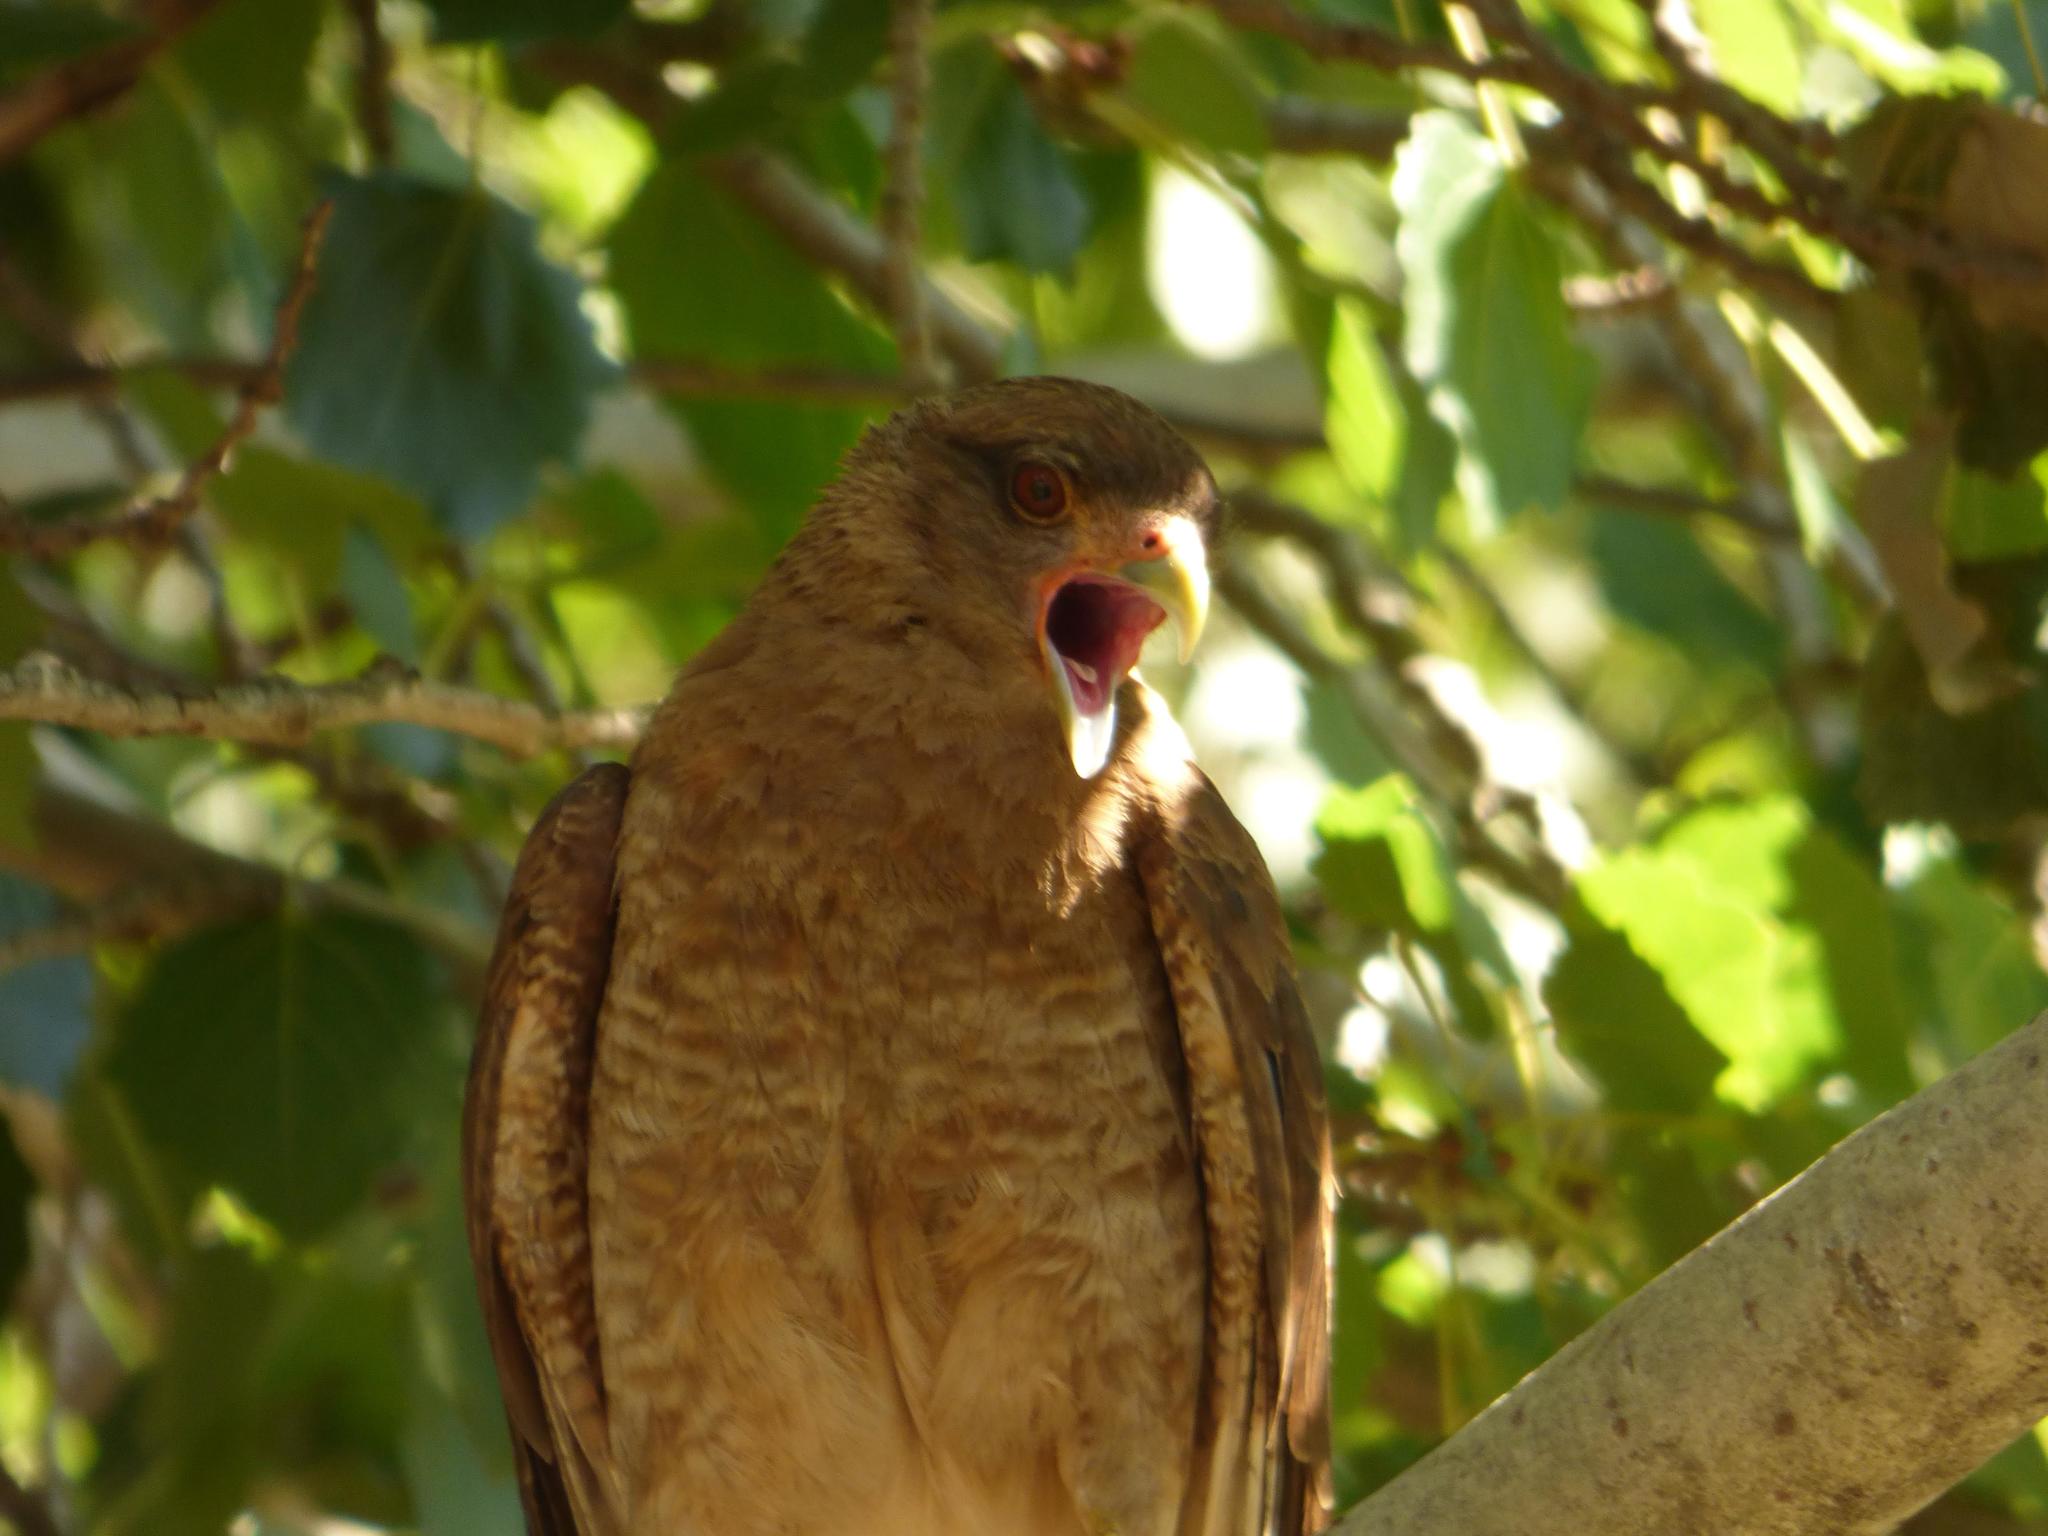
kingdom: Animalia
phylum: Chordata
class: Aves
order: Falconiformes
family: Falconidae
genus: Daptrius
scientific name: Daptrius
